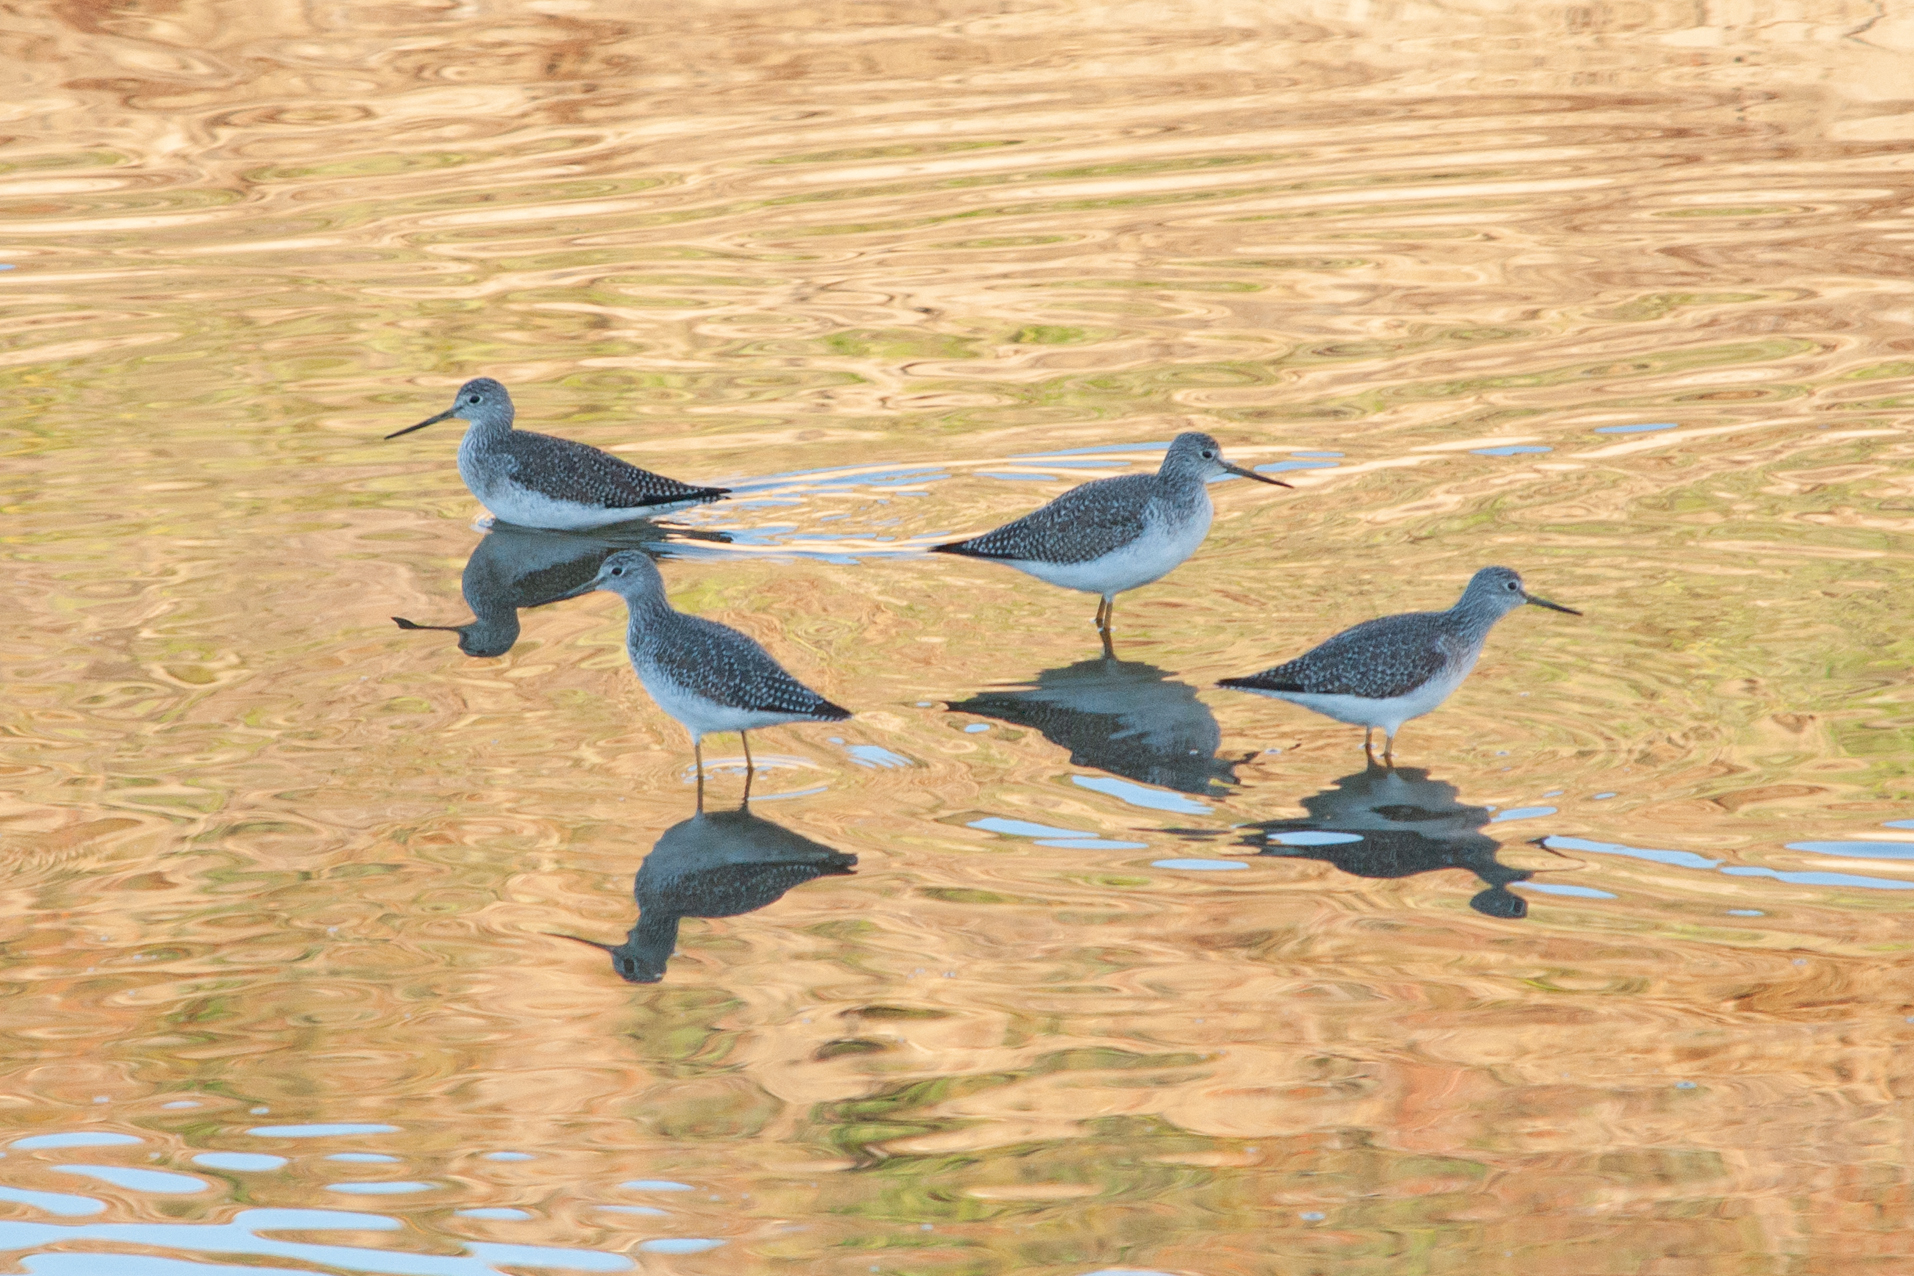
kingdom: Animalia
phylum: Chordata
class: Aves
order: Charadriiformes
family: Scolopacidae
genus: Tringa
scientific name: Tringa melanoleuca
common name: Greater yellowlegs
